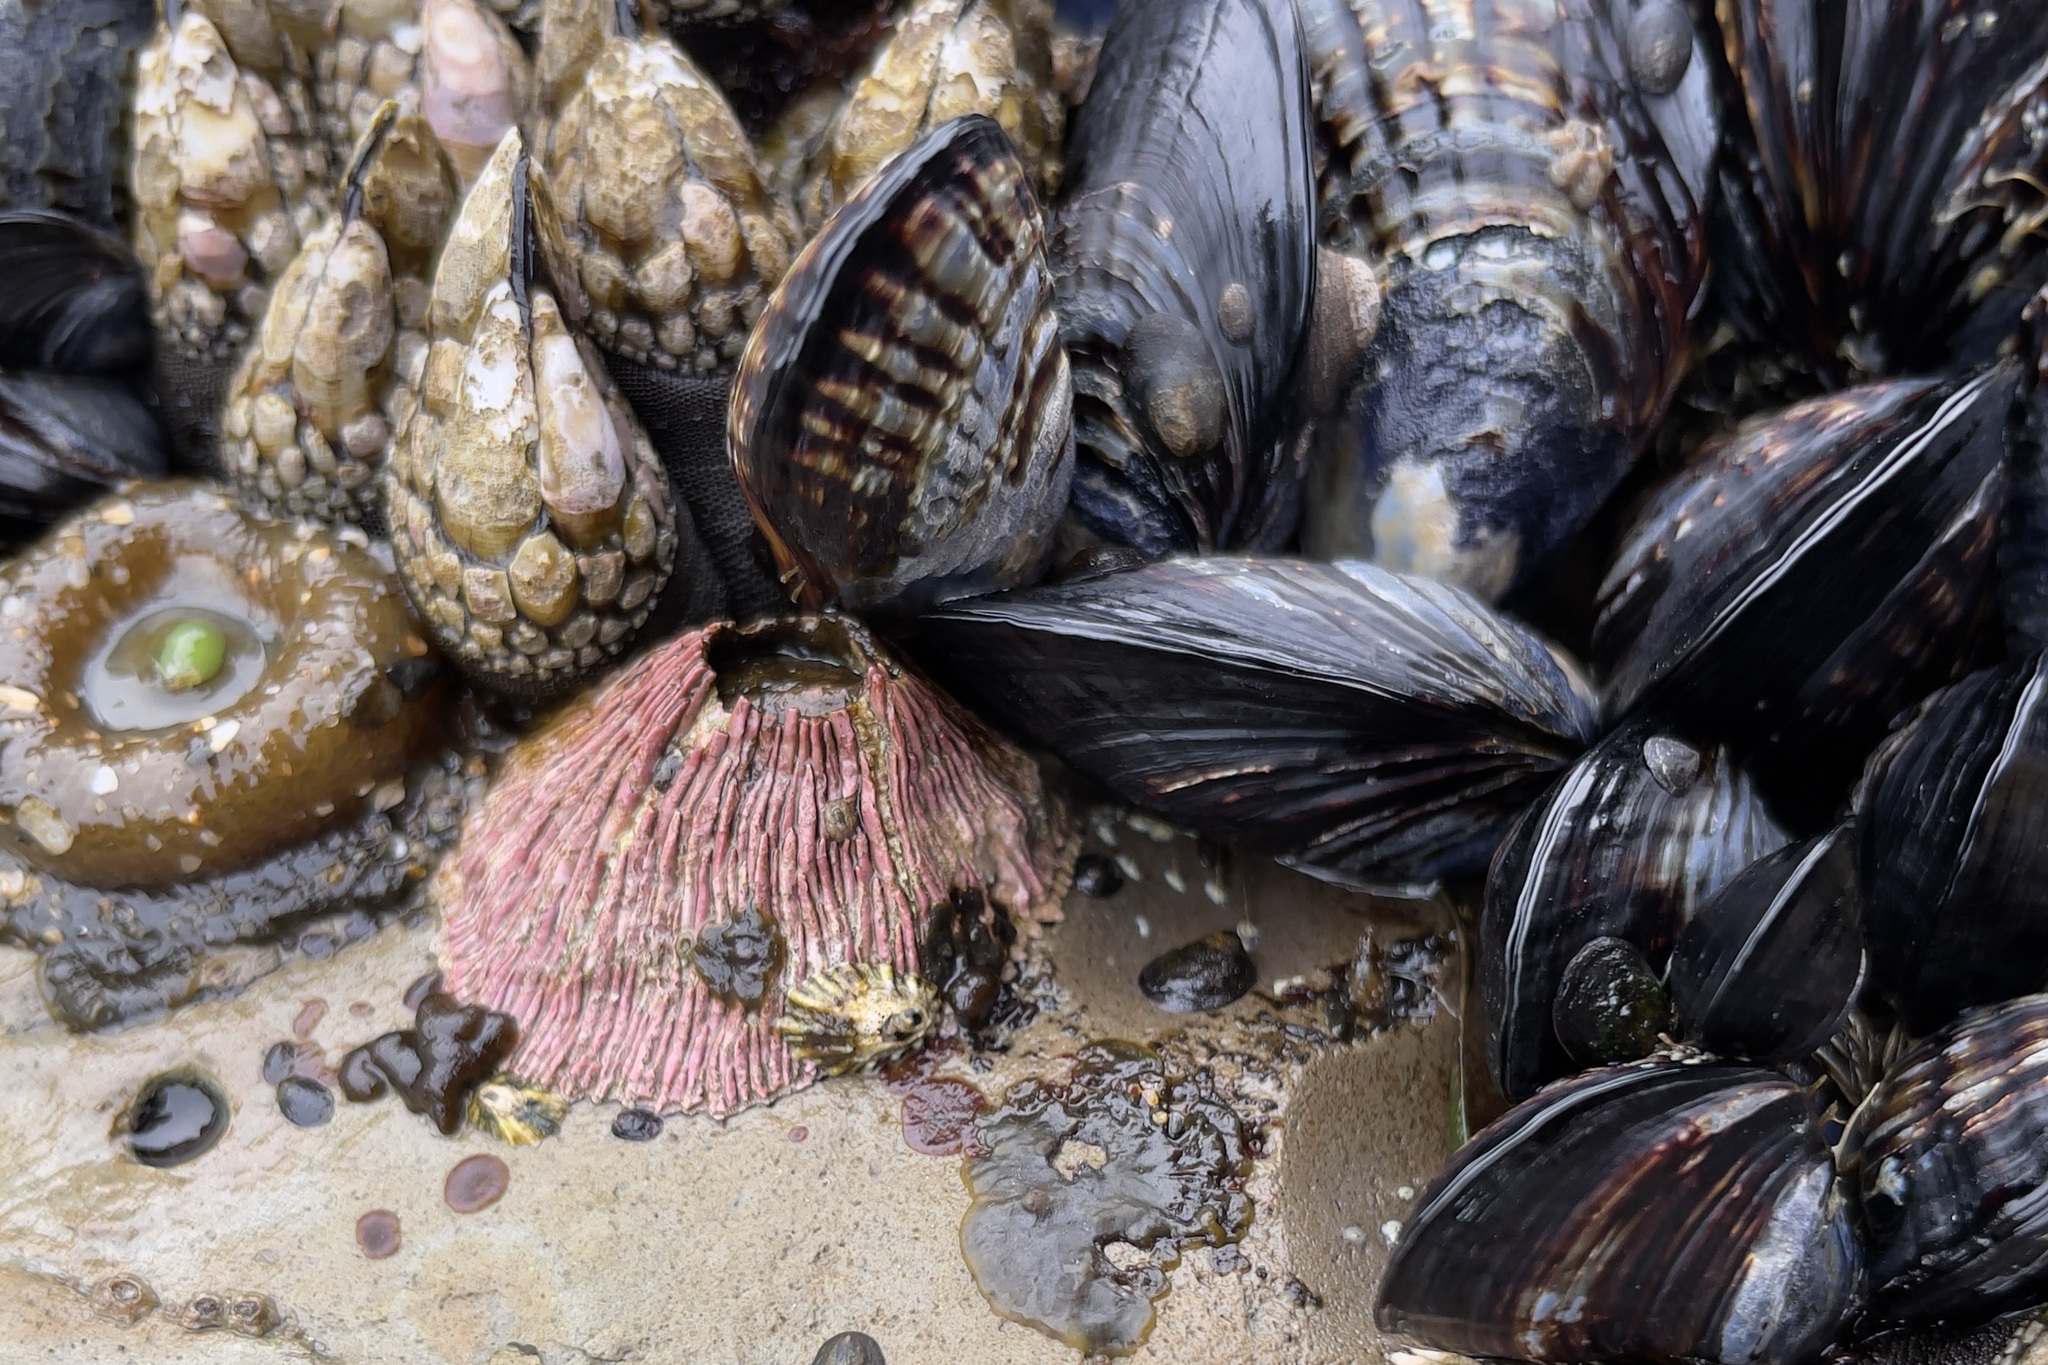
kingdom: Animalia
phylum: Arthropoda
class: Maxillopoda
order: Sessilia
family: Tetraclitidae
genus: Tetraclita
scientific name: Tetraclita rubescens
